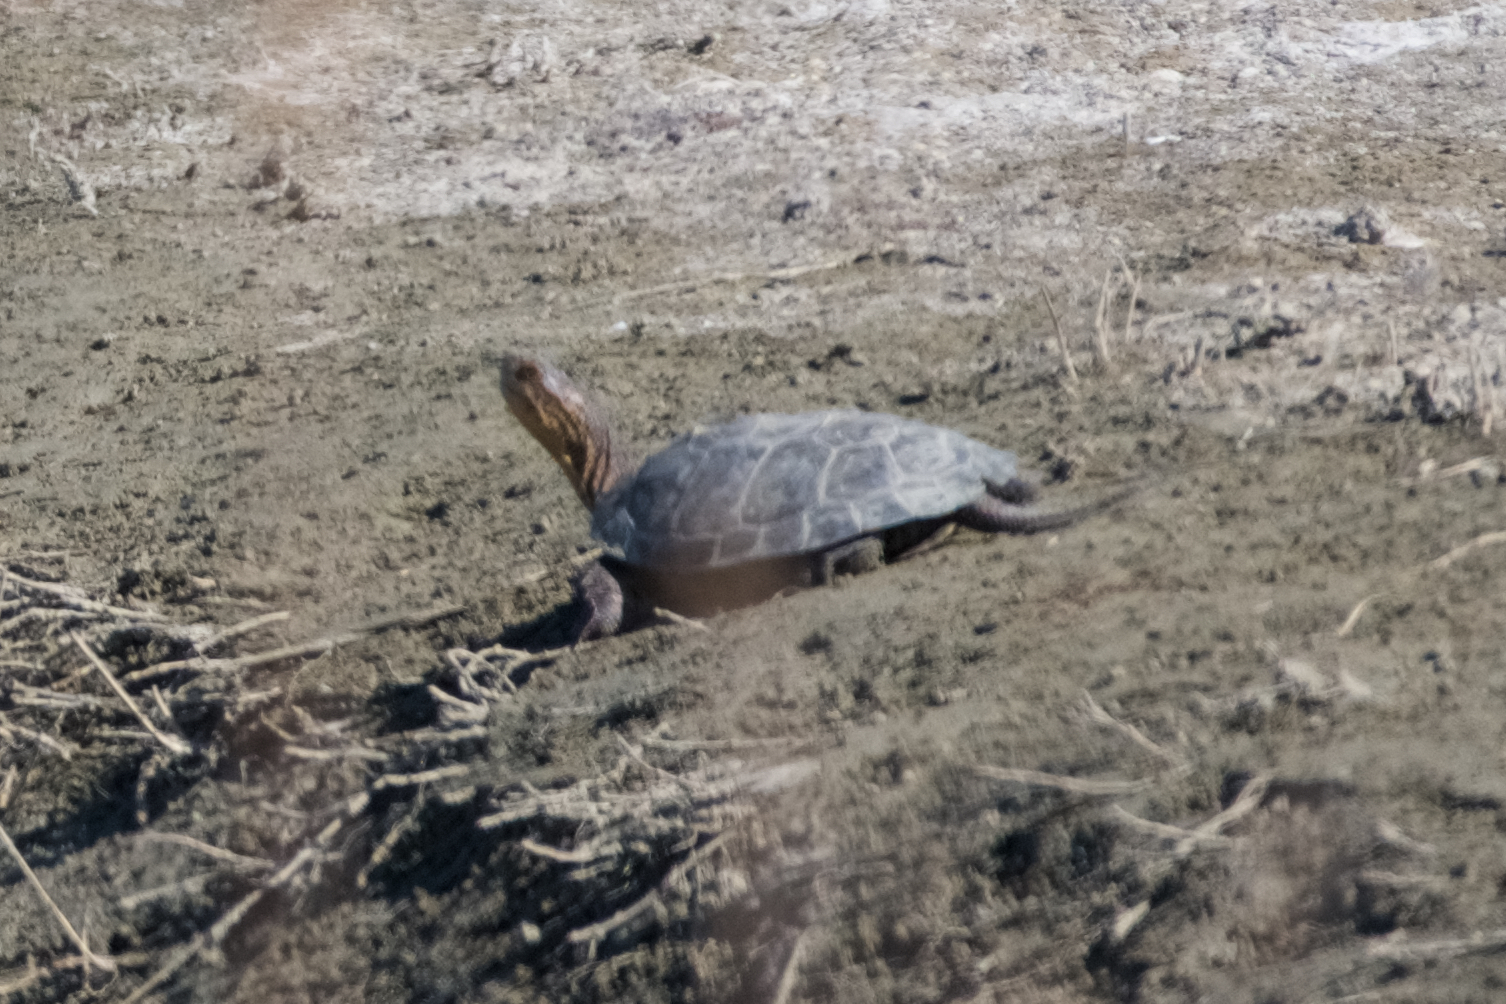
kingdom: Animalia
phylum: Chordata
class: Testudines
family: Emydidae
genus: Actinemys
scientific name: Actinemys marmorata
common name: Western pond turtle
